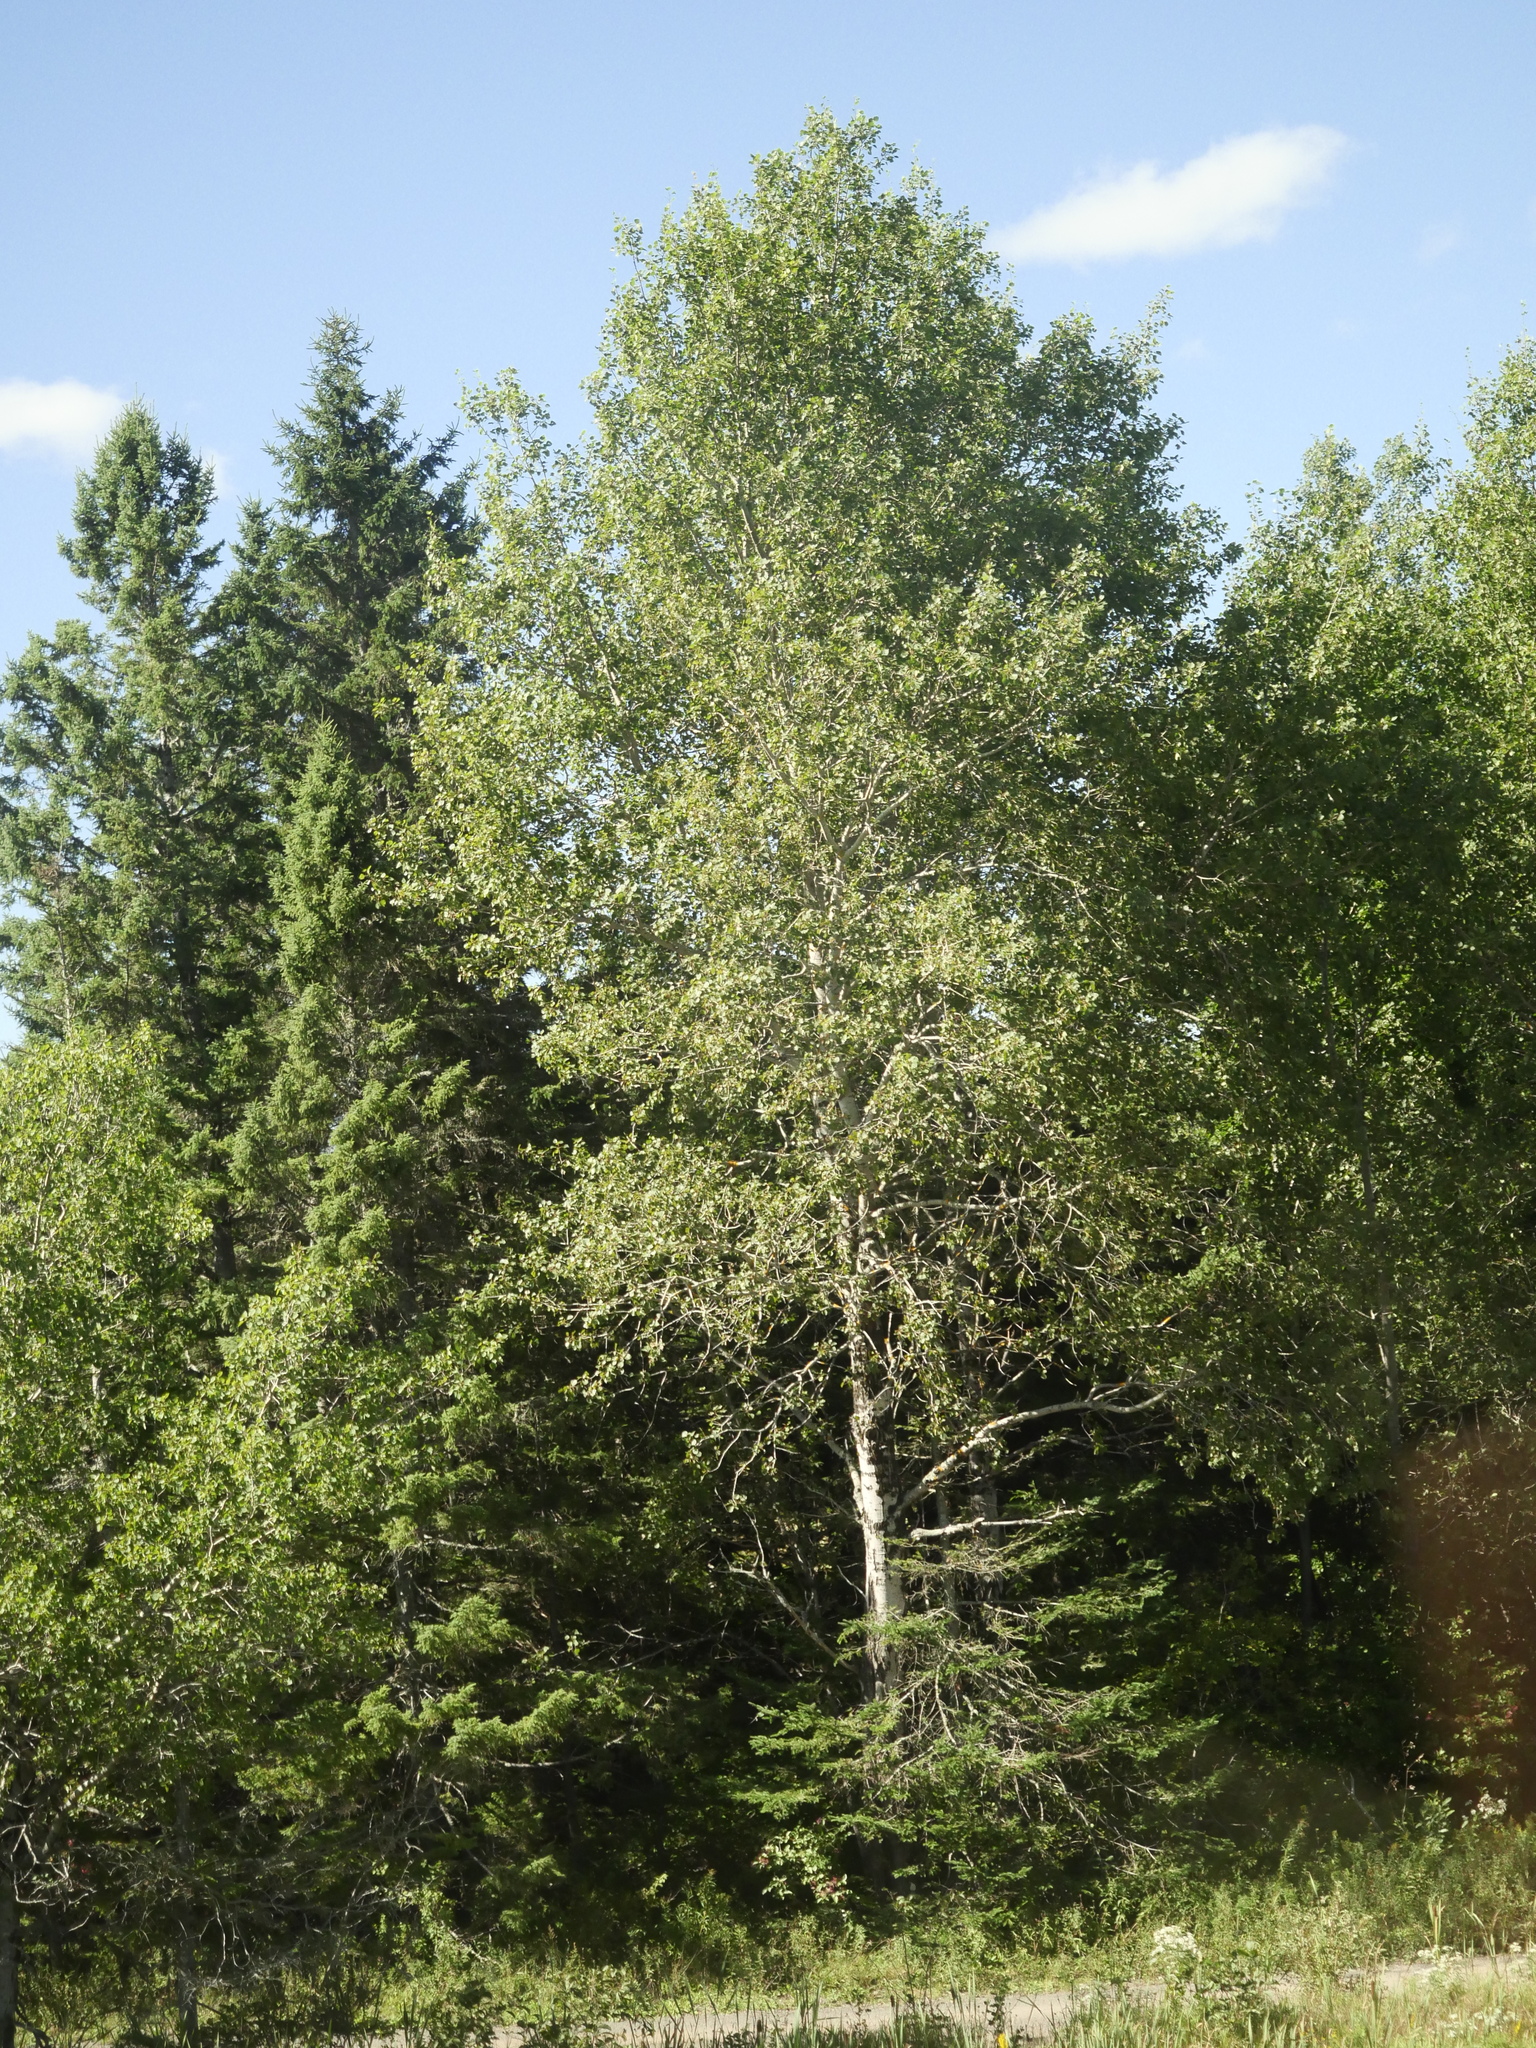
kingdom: Plantae
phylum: Tracheophyta
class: Magnoliopsida
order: Malpighiales
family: Salicaceae
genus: Populus
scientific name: Populus tremuloides
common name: Quaking aspen
